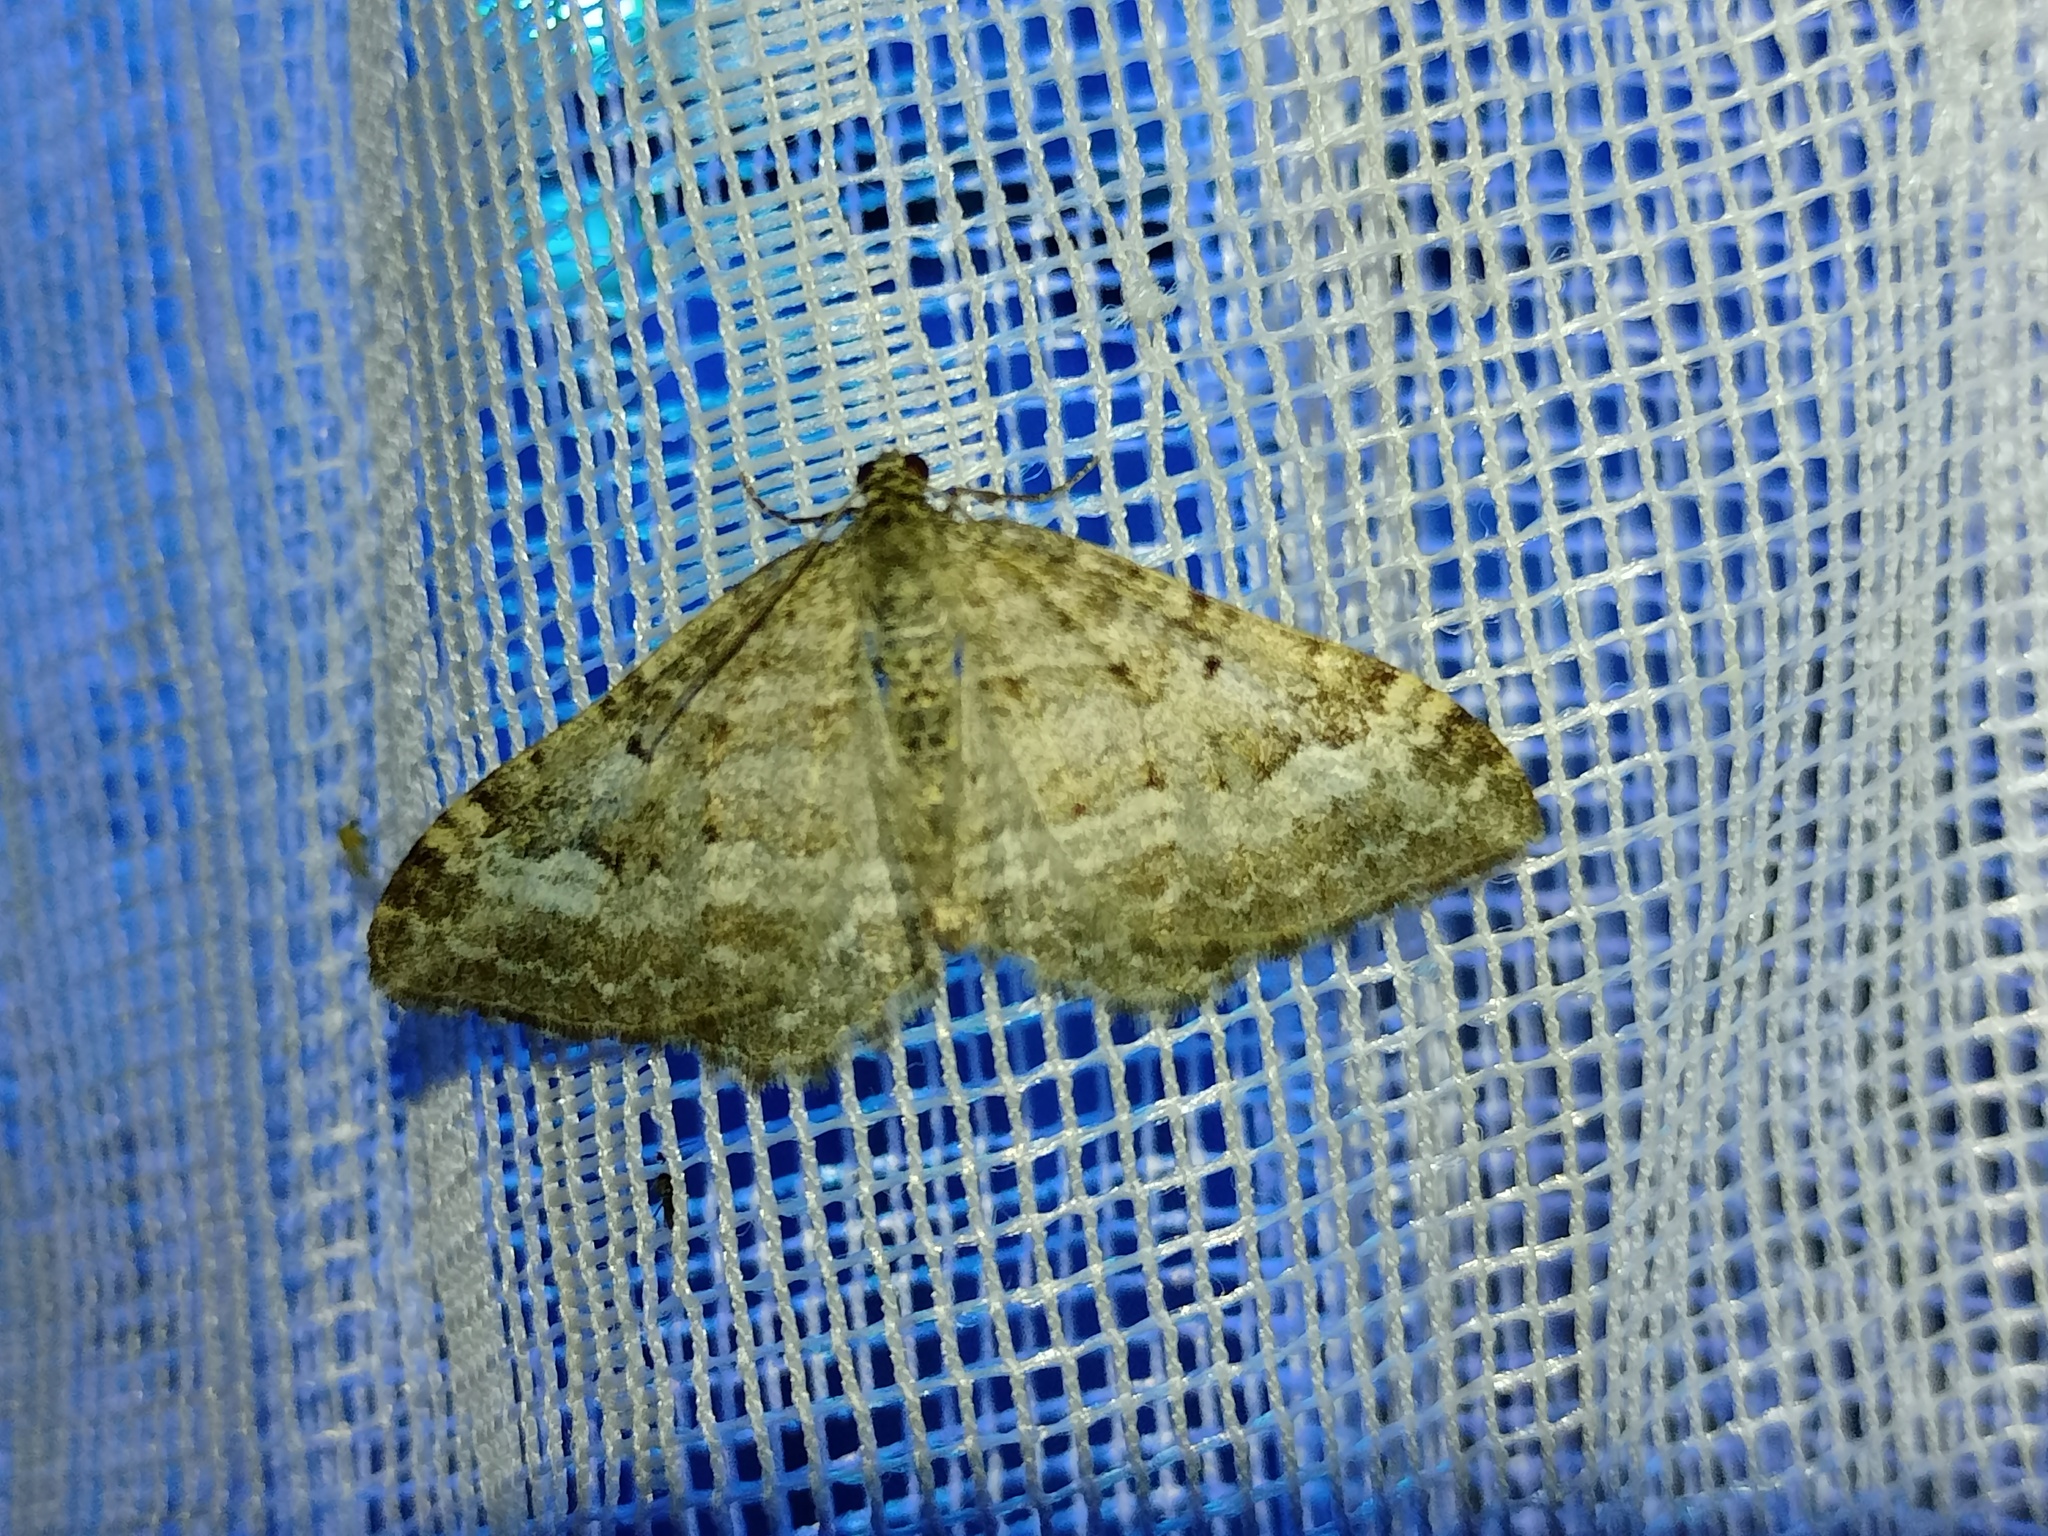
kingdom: Animalia
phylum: Arthropoda
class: Insecta
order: Lepidoptera
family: Geometridae
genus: Euphyia
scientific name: Euphyia molluginata
